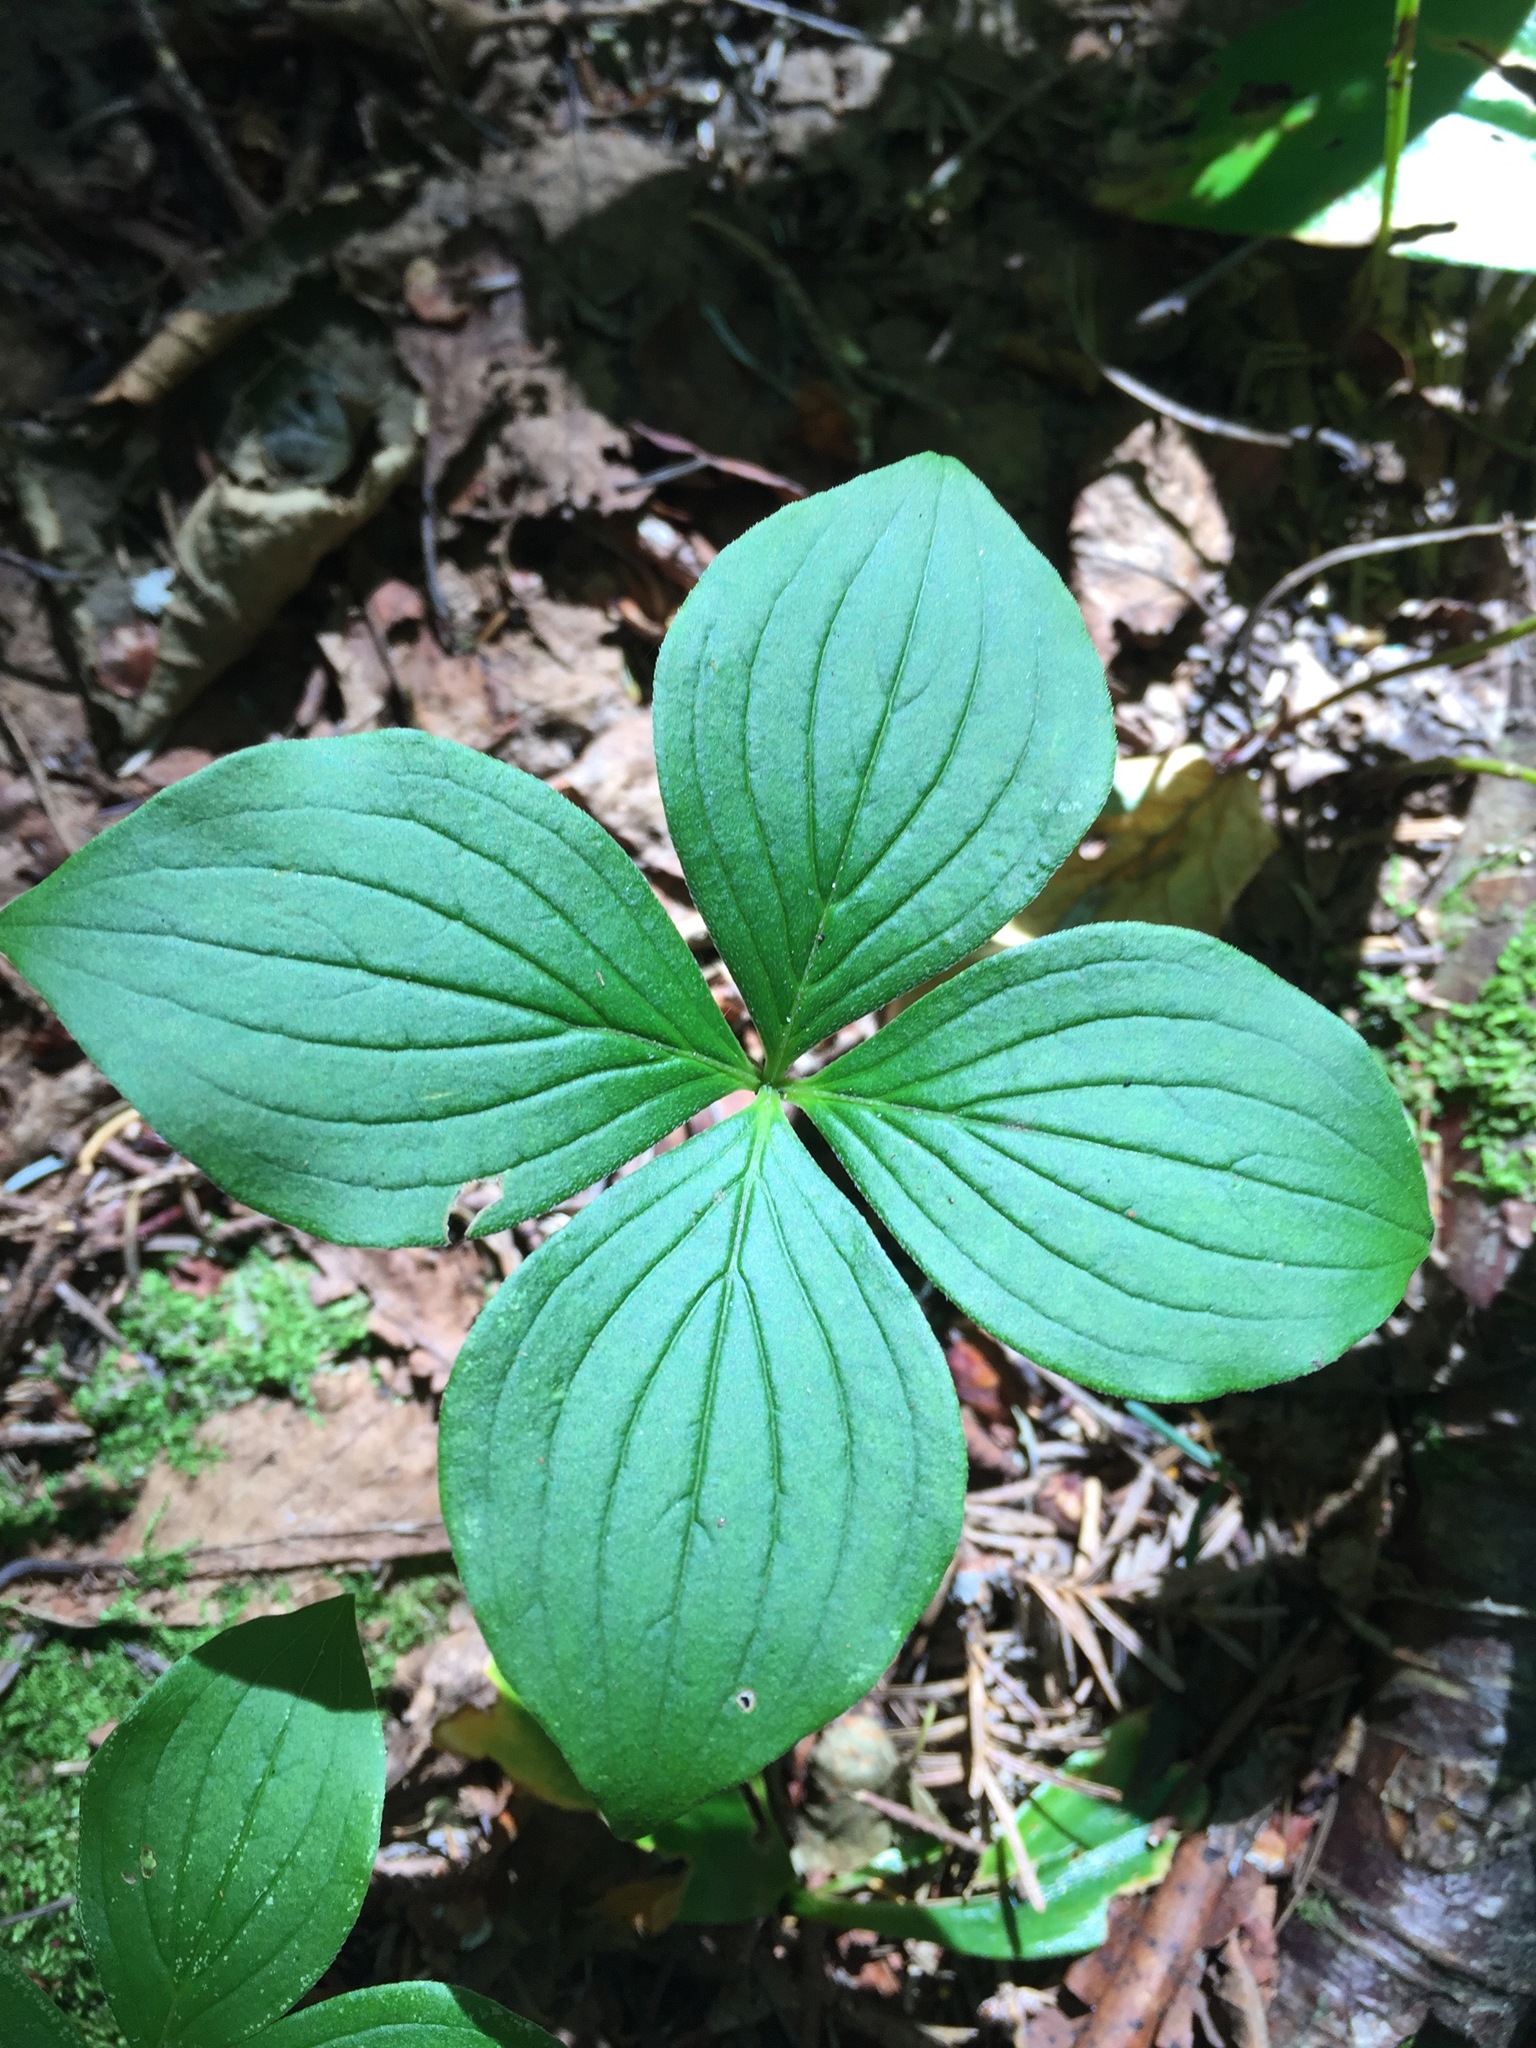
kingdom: Plantae
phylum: Tracheophyta
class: Magnoliopsida
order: Cornales
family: Cornaceae
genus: Cornus
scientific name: Cornus canadensis
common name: Creeping dogwood
